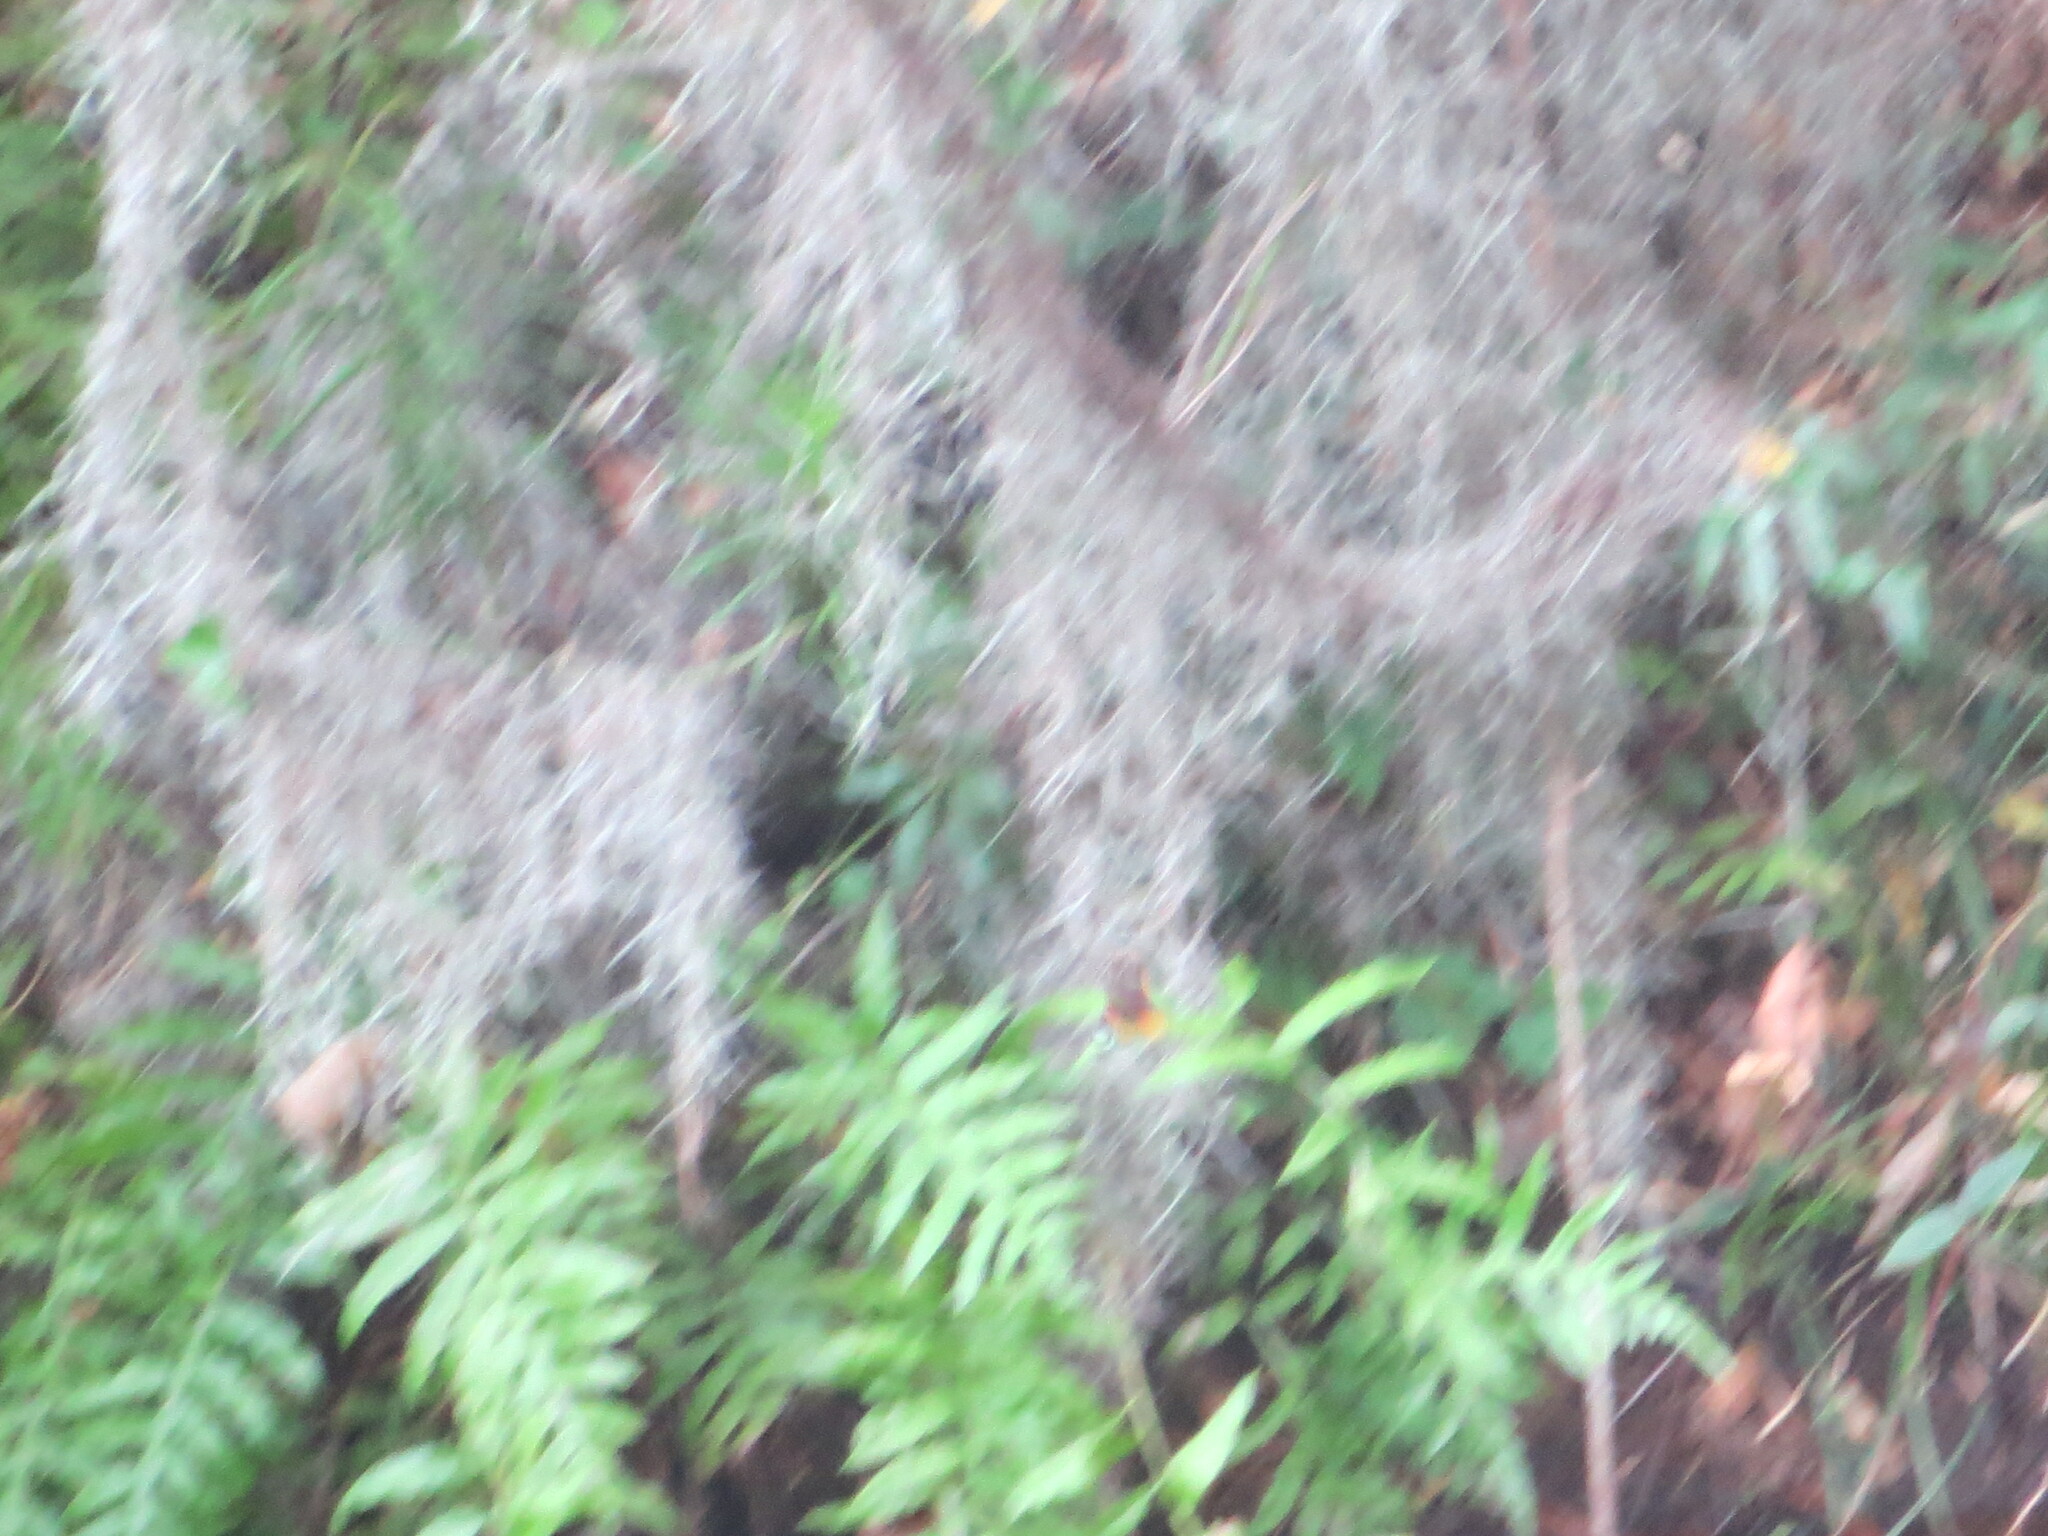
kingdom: Plantae
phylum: Tracheophyta
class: Liliopsida
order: Poales
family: Bromeliaceae
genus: Tillandsia
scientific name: Tillandsia usneoides
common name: Spanish moss
